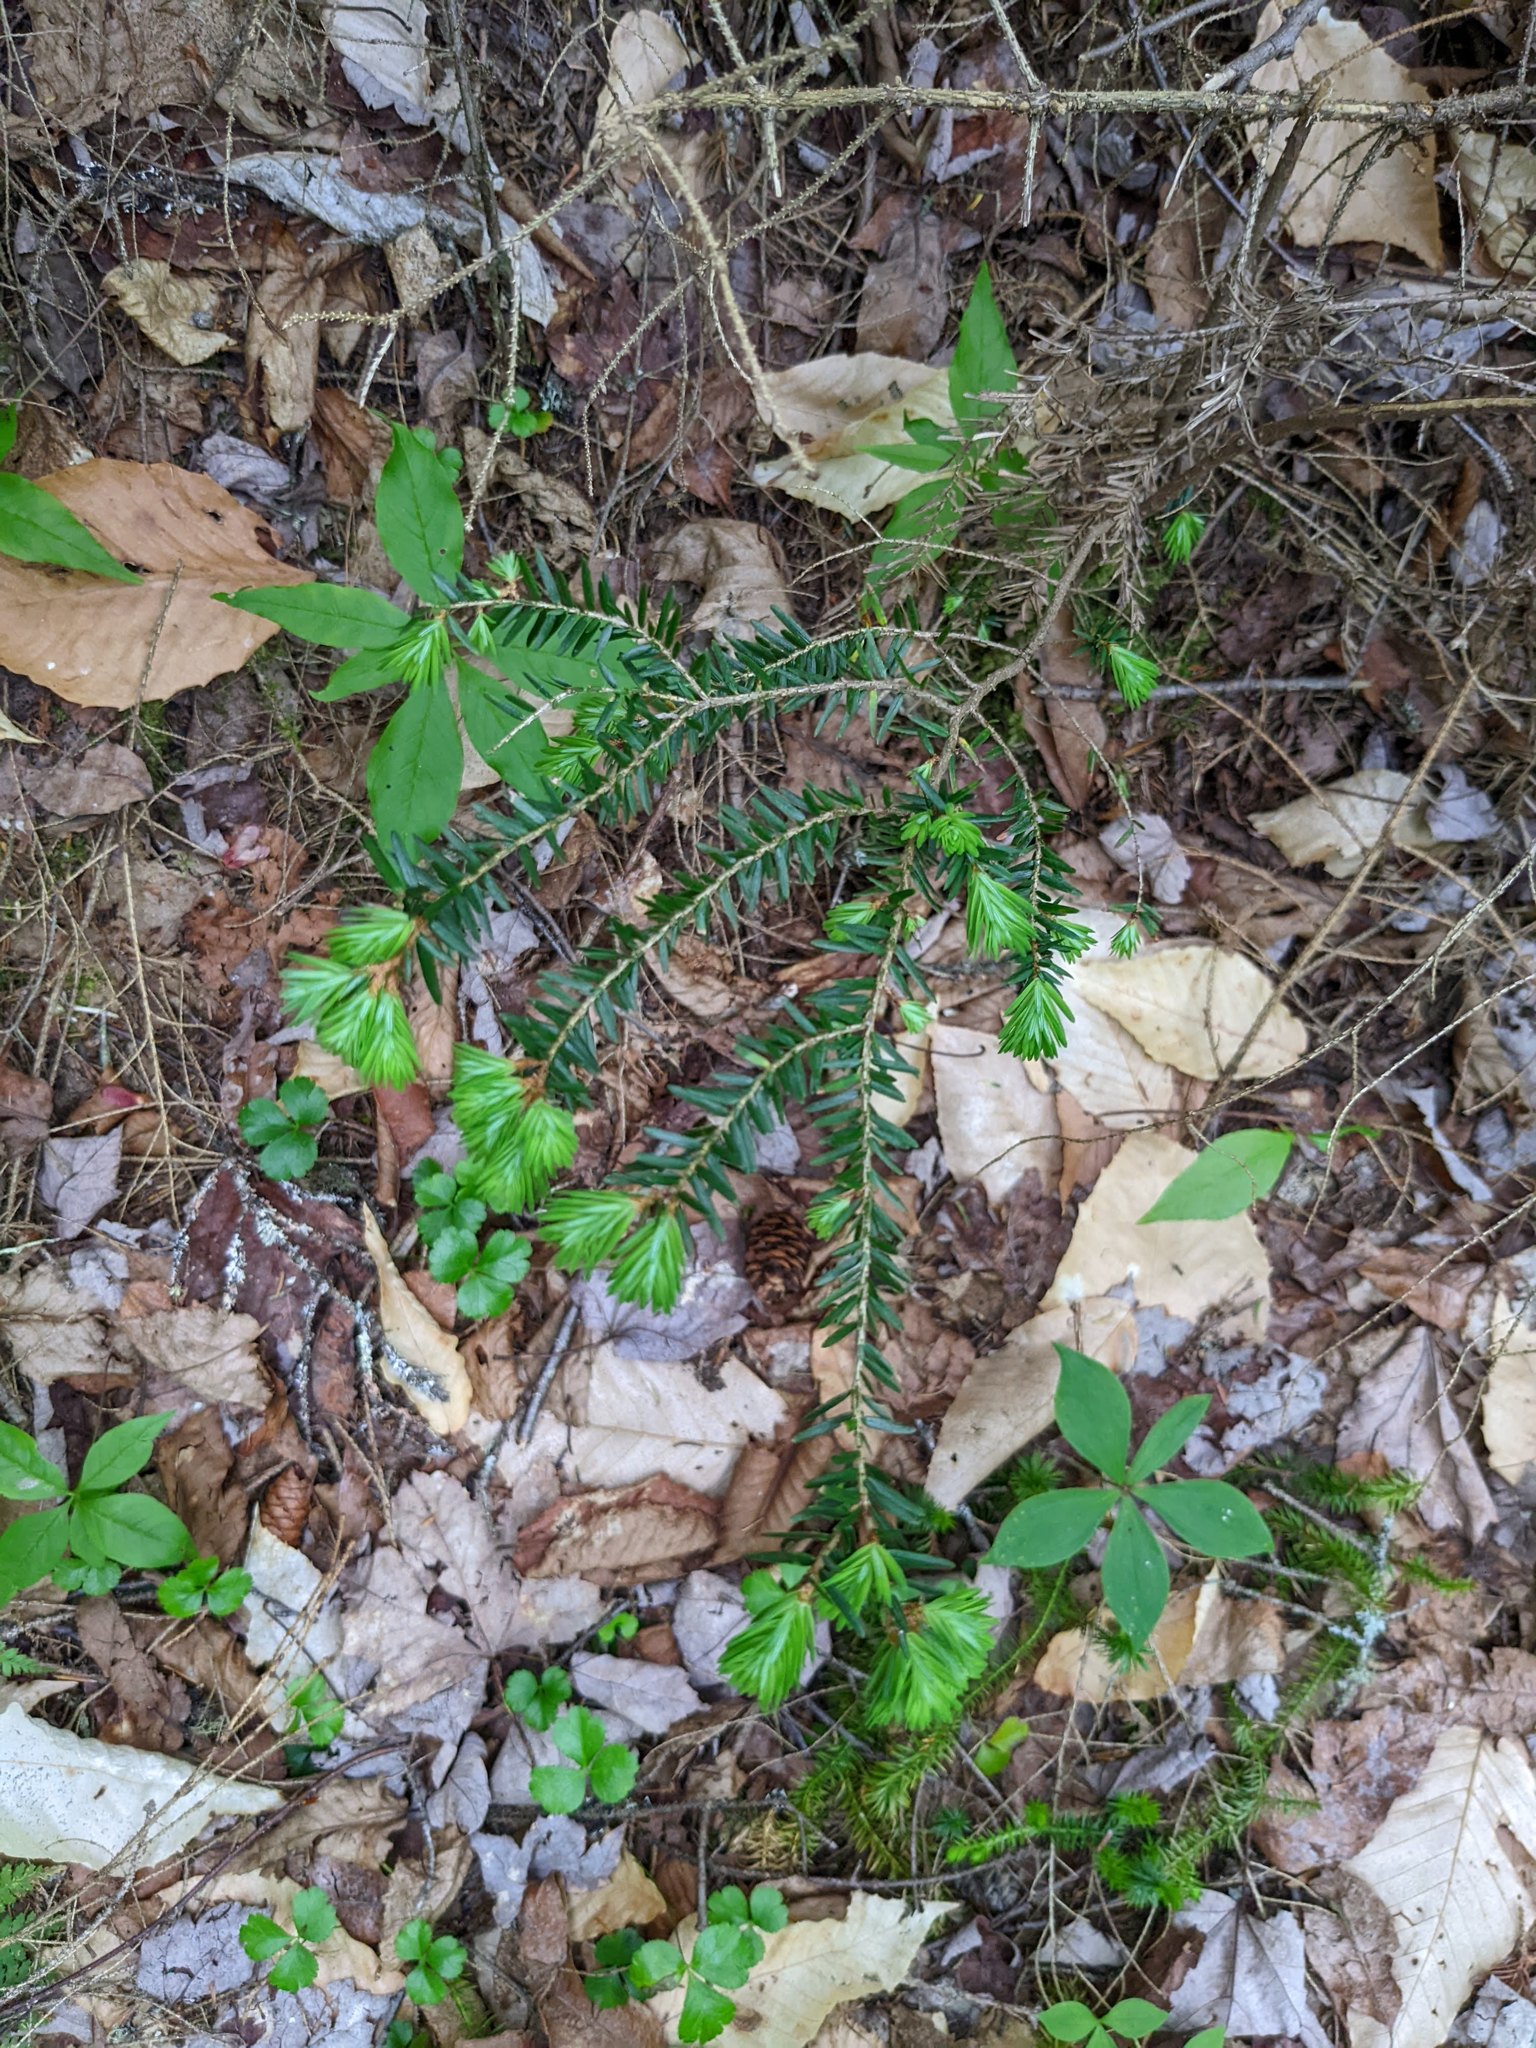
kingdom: Plantae
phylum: Tracheophyta
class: Pinopsida
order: Pinales
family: Pinaceae
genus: Tsuga
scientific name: Tsuga canadensis
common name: Eastern hemlock
